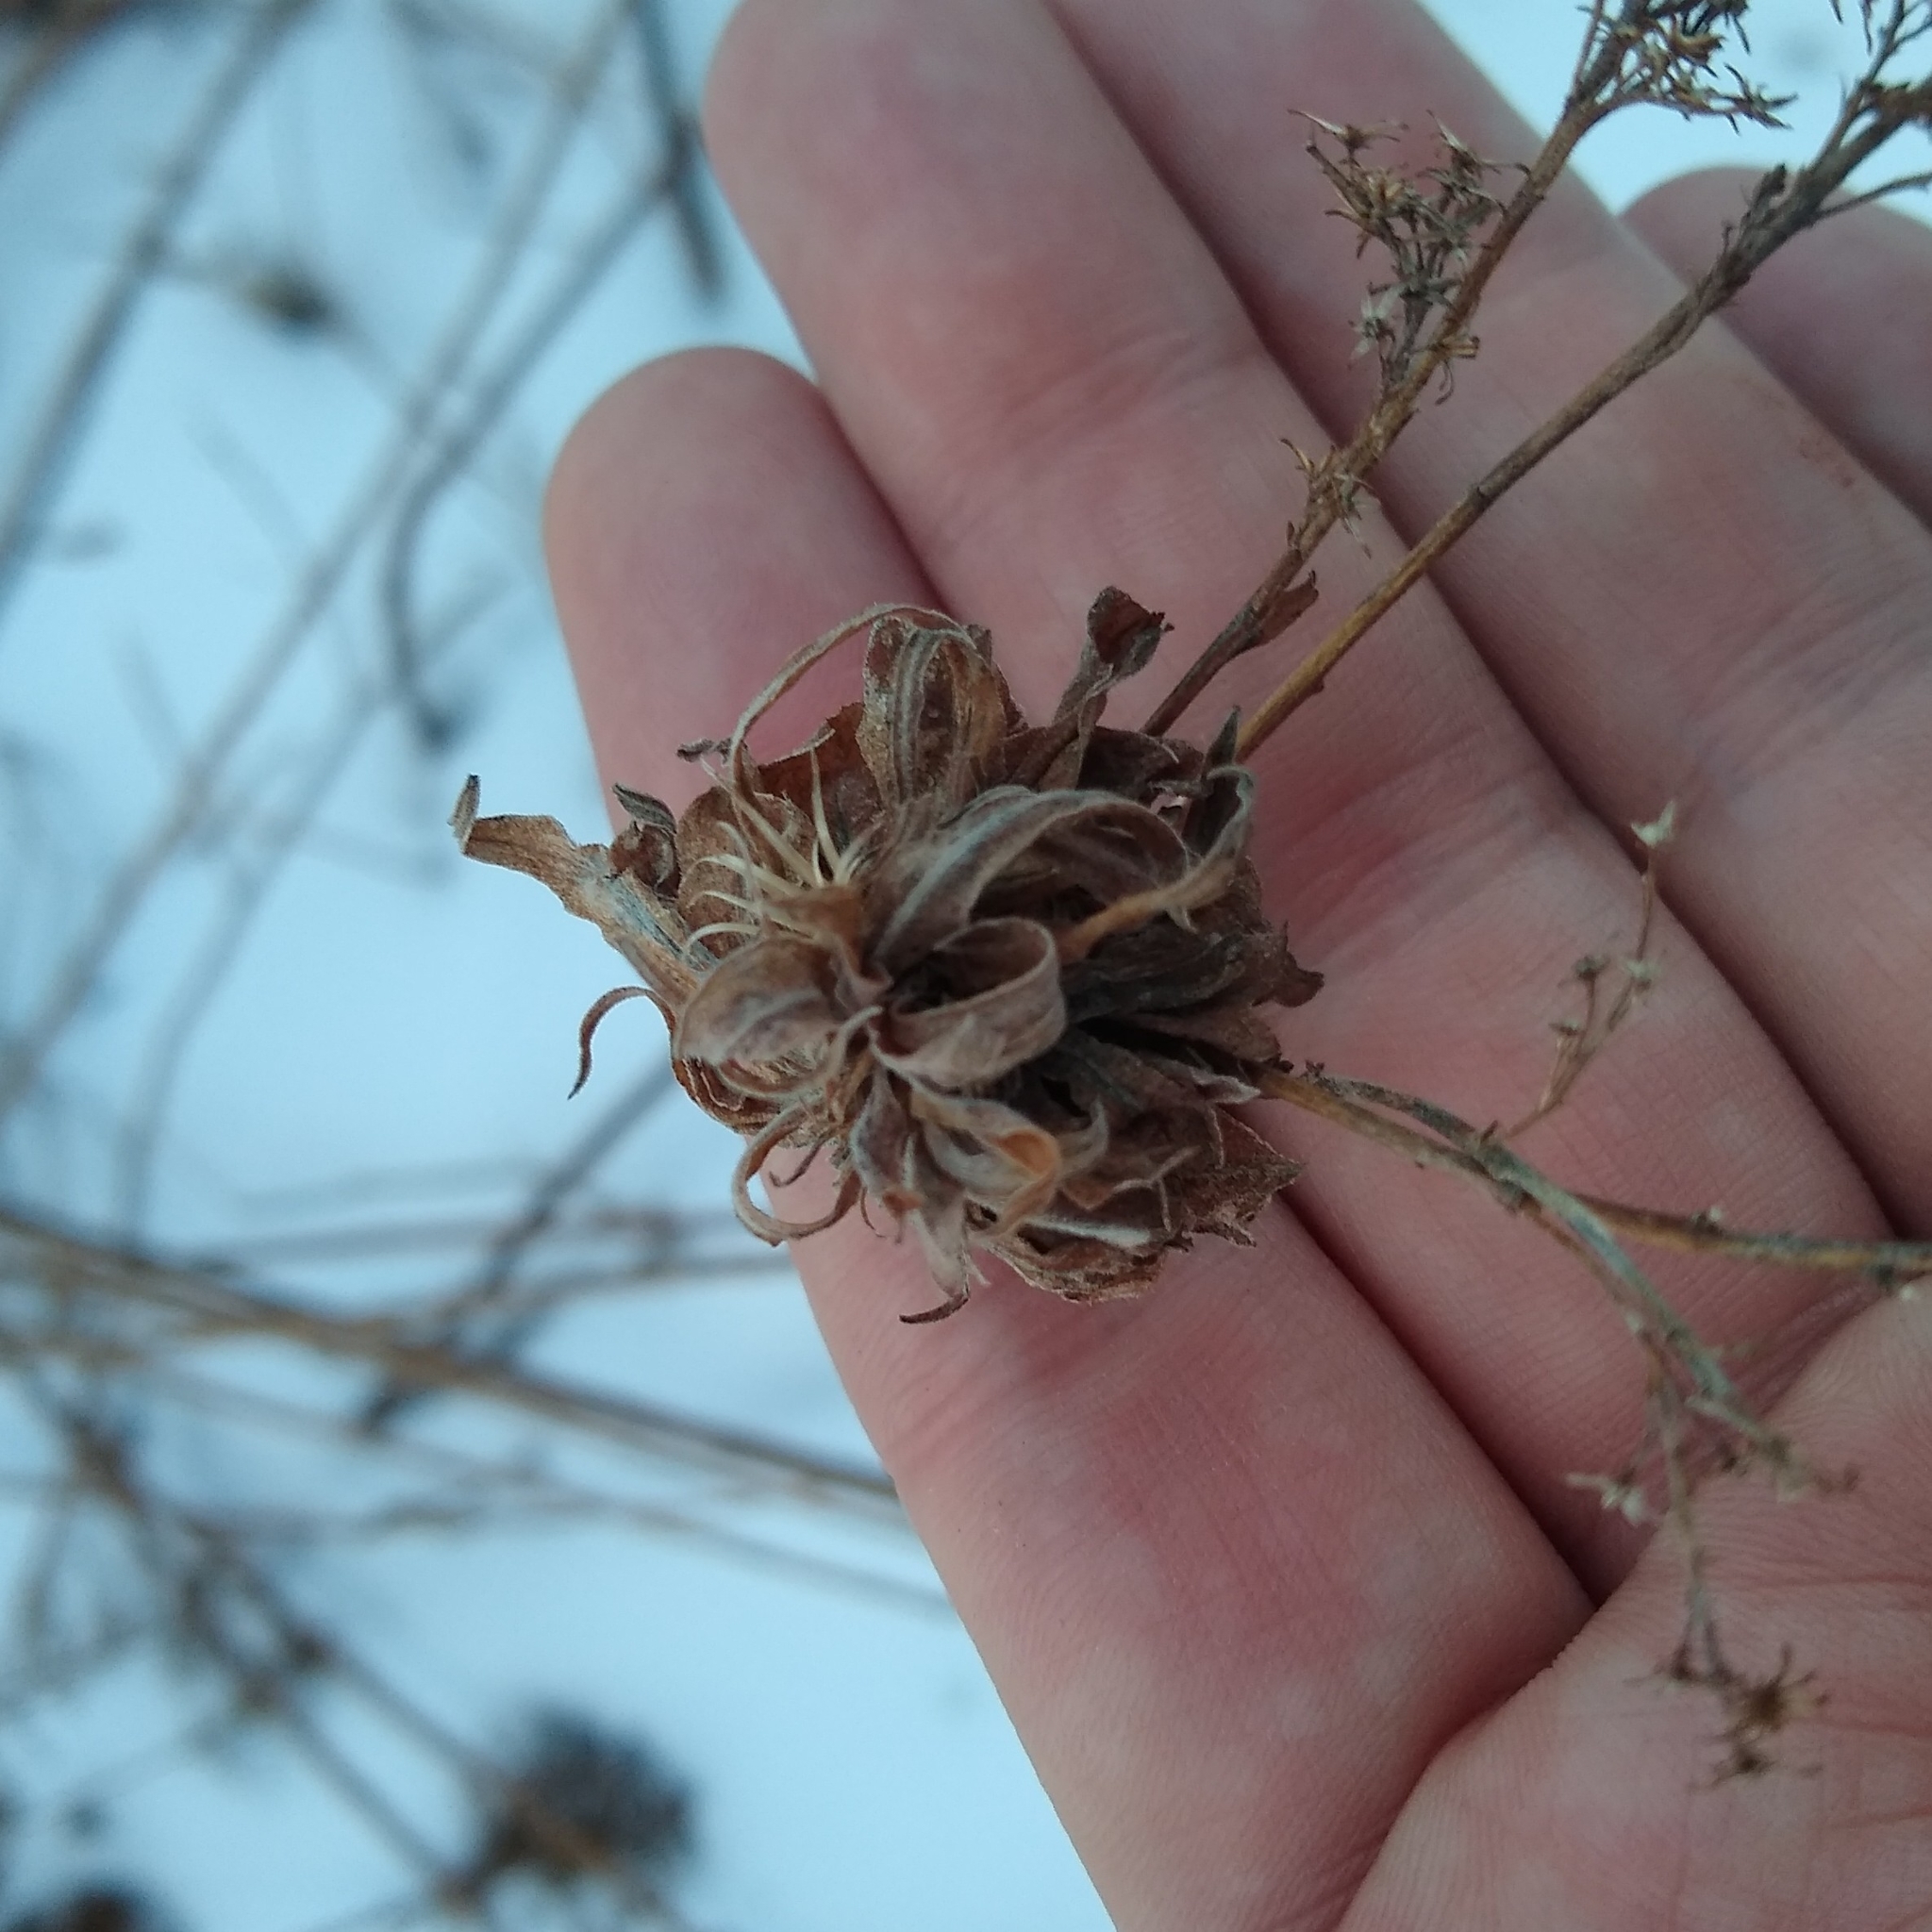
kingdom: Animalia
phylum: Arthropoda
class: Insecta
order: Diptera
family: Cecidomyiidae
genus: Rhopalomyia
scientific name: Rhopalomyia solidaginis
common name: Goldenrod bunch gall midge
